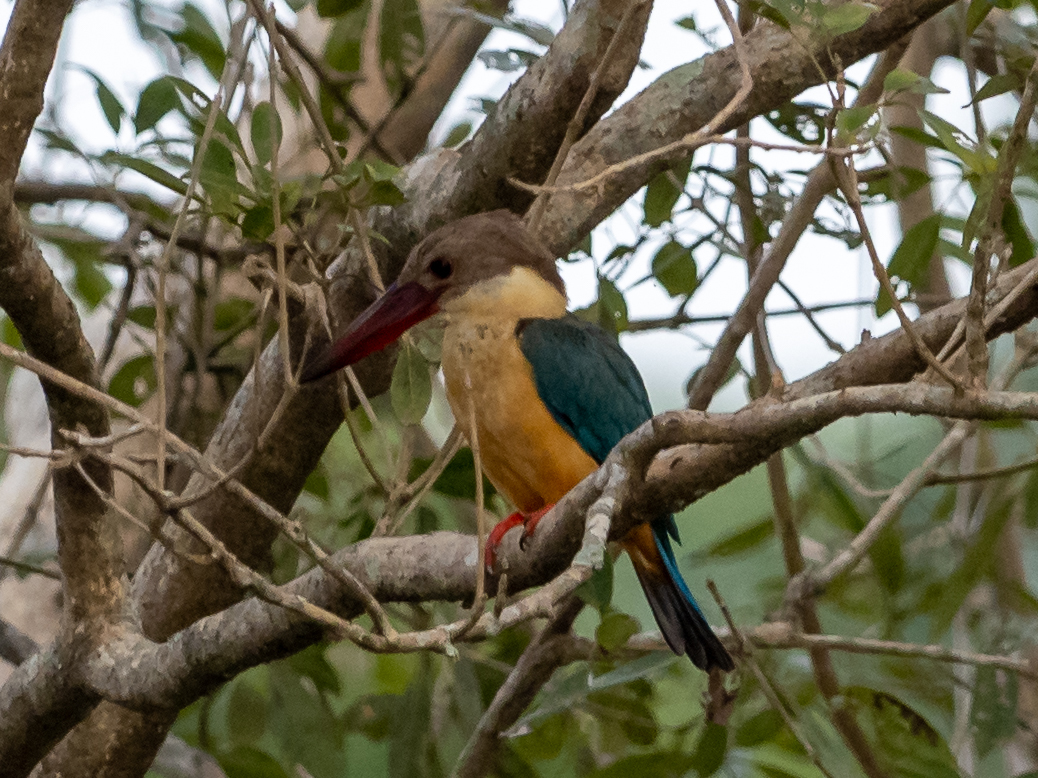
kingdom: Animalia
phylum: Chordata
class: Aves
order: Coraciiformes
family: Alcedinidae
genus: Pelargopsis
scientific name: Pelargopsis capensis
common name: Stork-billed kingfisher
